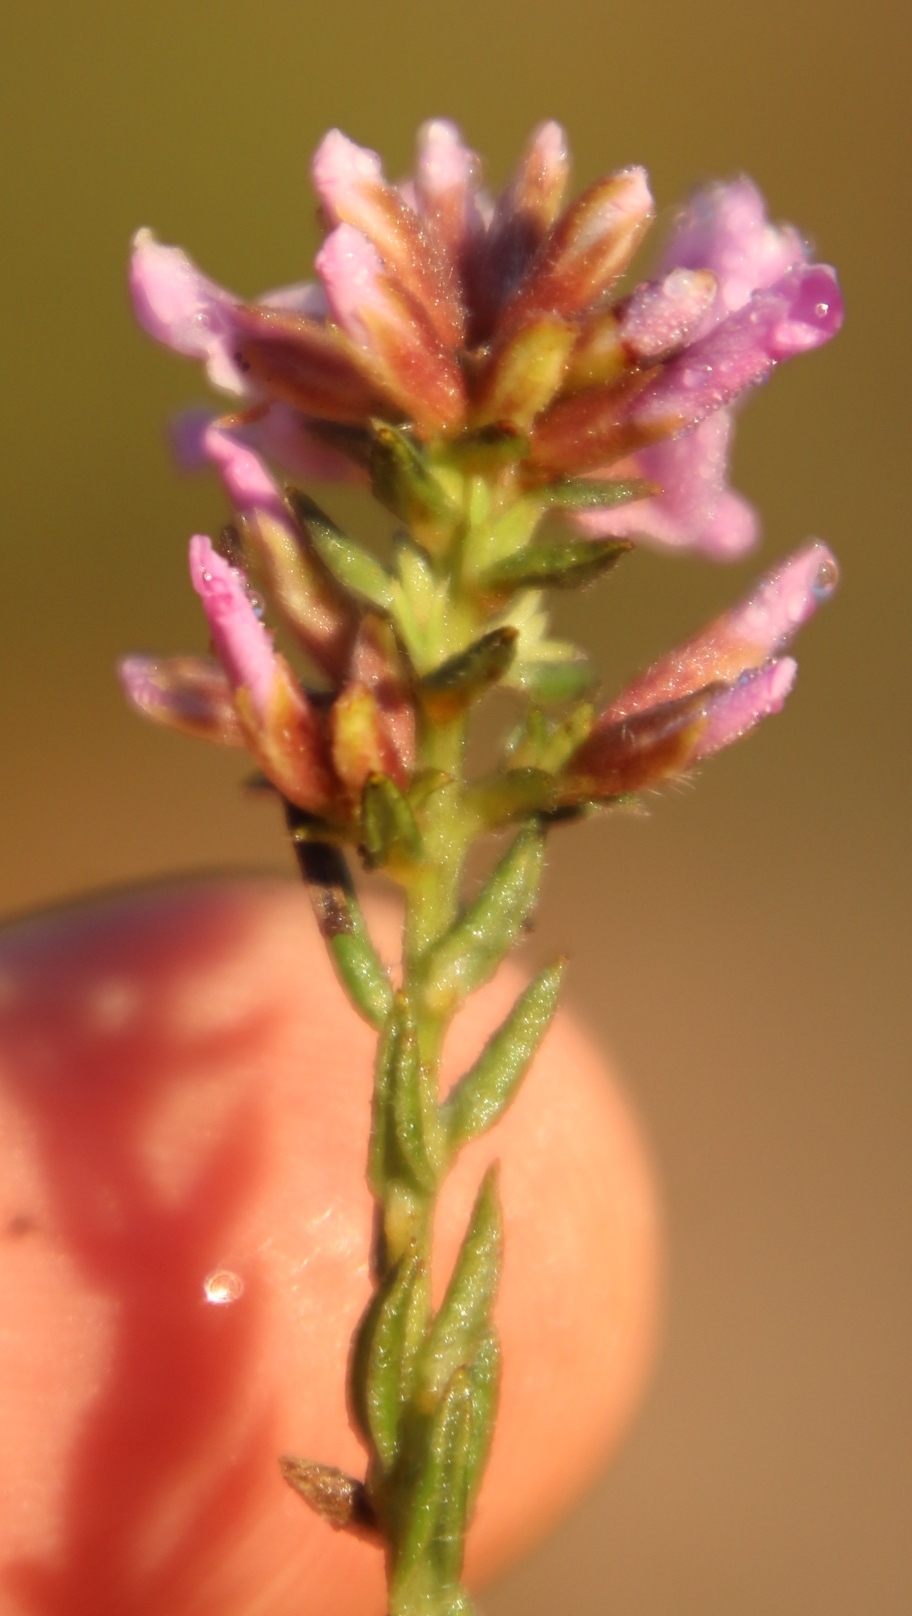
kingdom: Plantae
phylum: Tracheophyta
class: Magnoliopsida
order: Fabales
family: Fabaceae
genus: Amphithalea
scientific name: Amphithalea ericifolia
